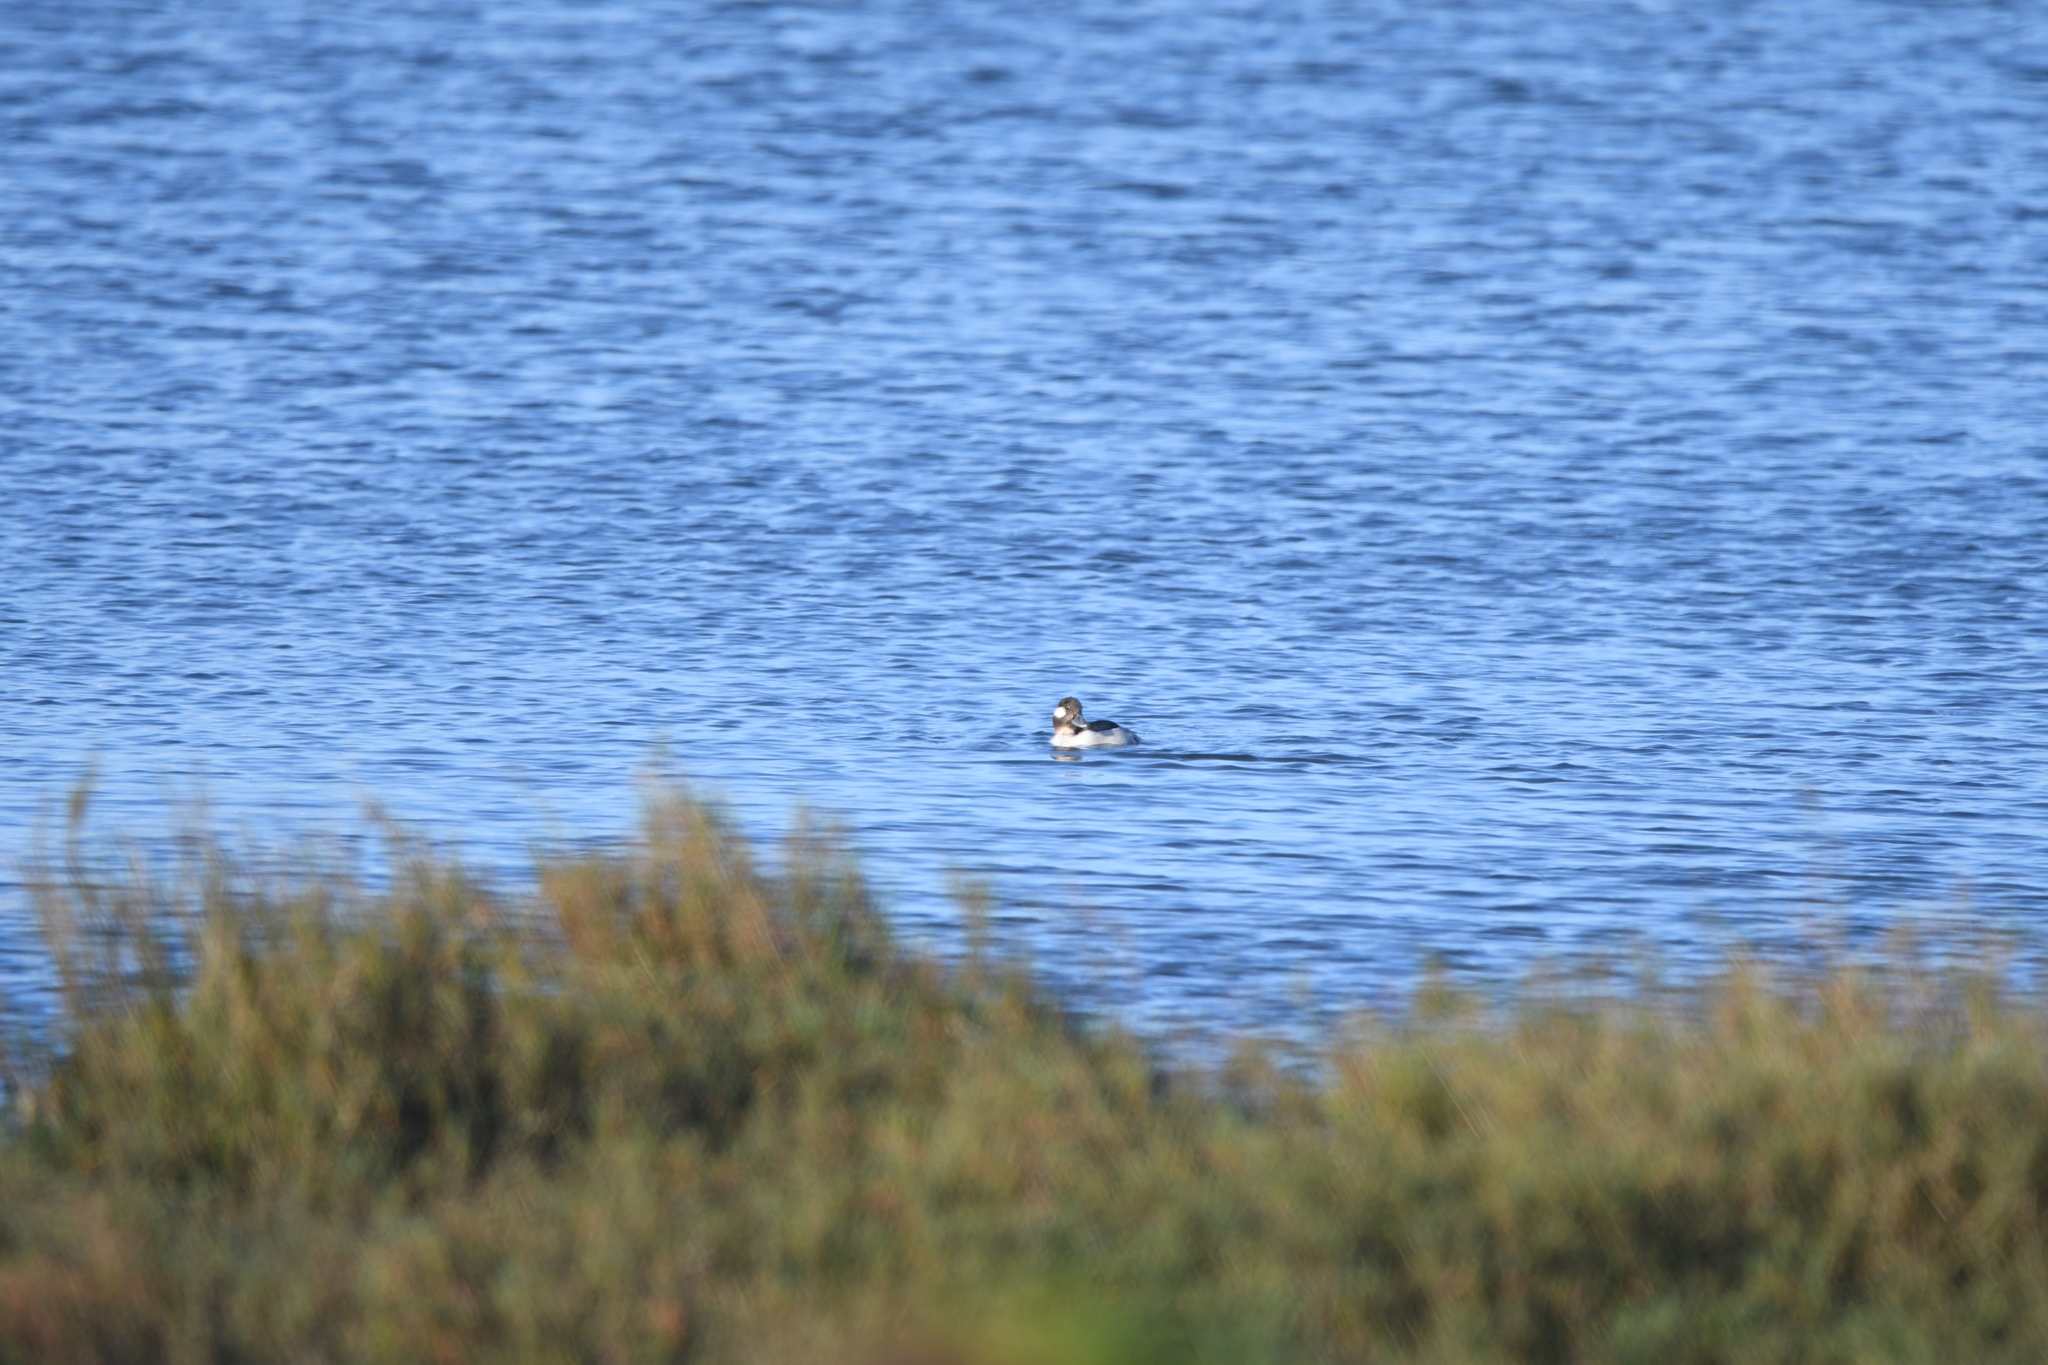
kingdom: Animalia
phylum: Chordata
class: Aves
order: Anseriformes
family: Anatidae
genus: Bucephala
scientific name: Bucephala albeola
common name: Bufflehead
